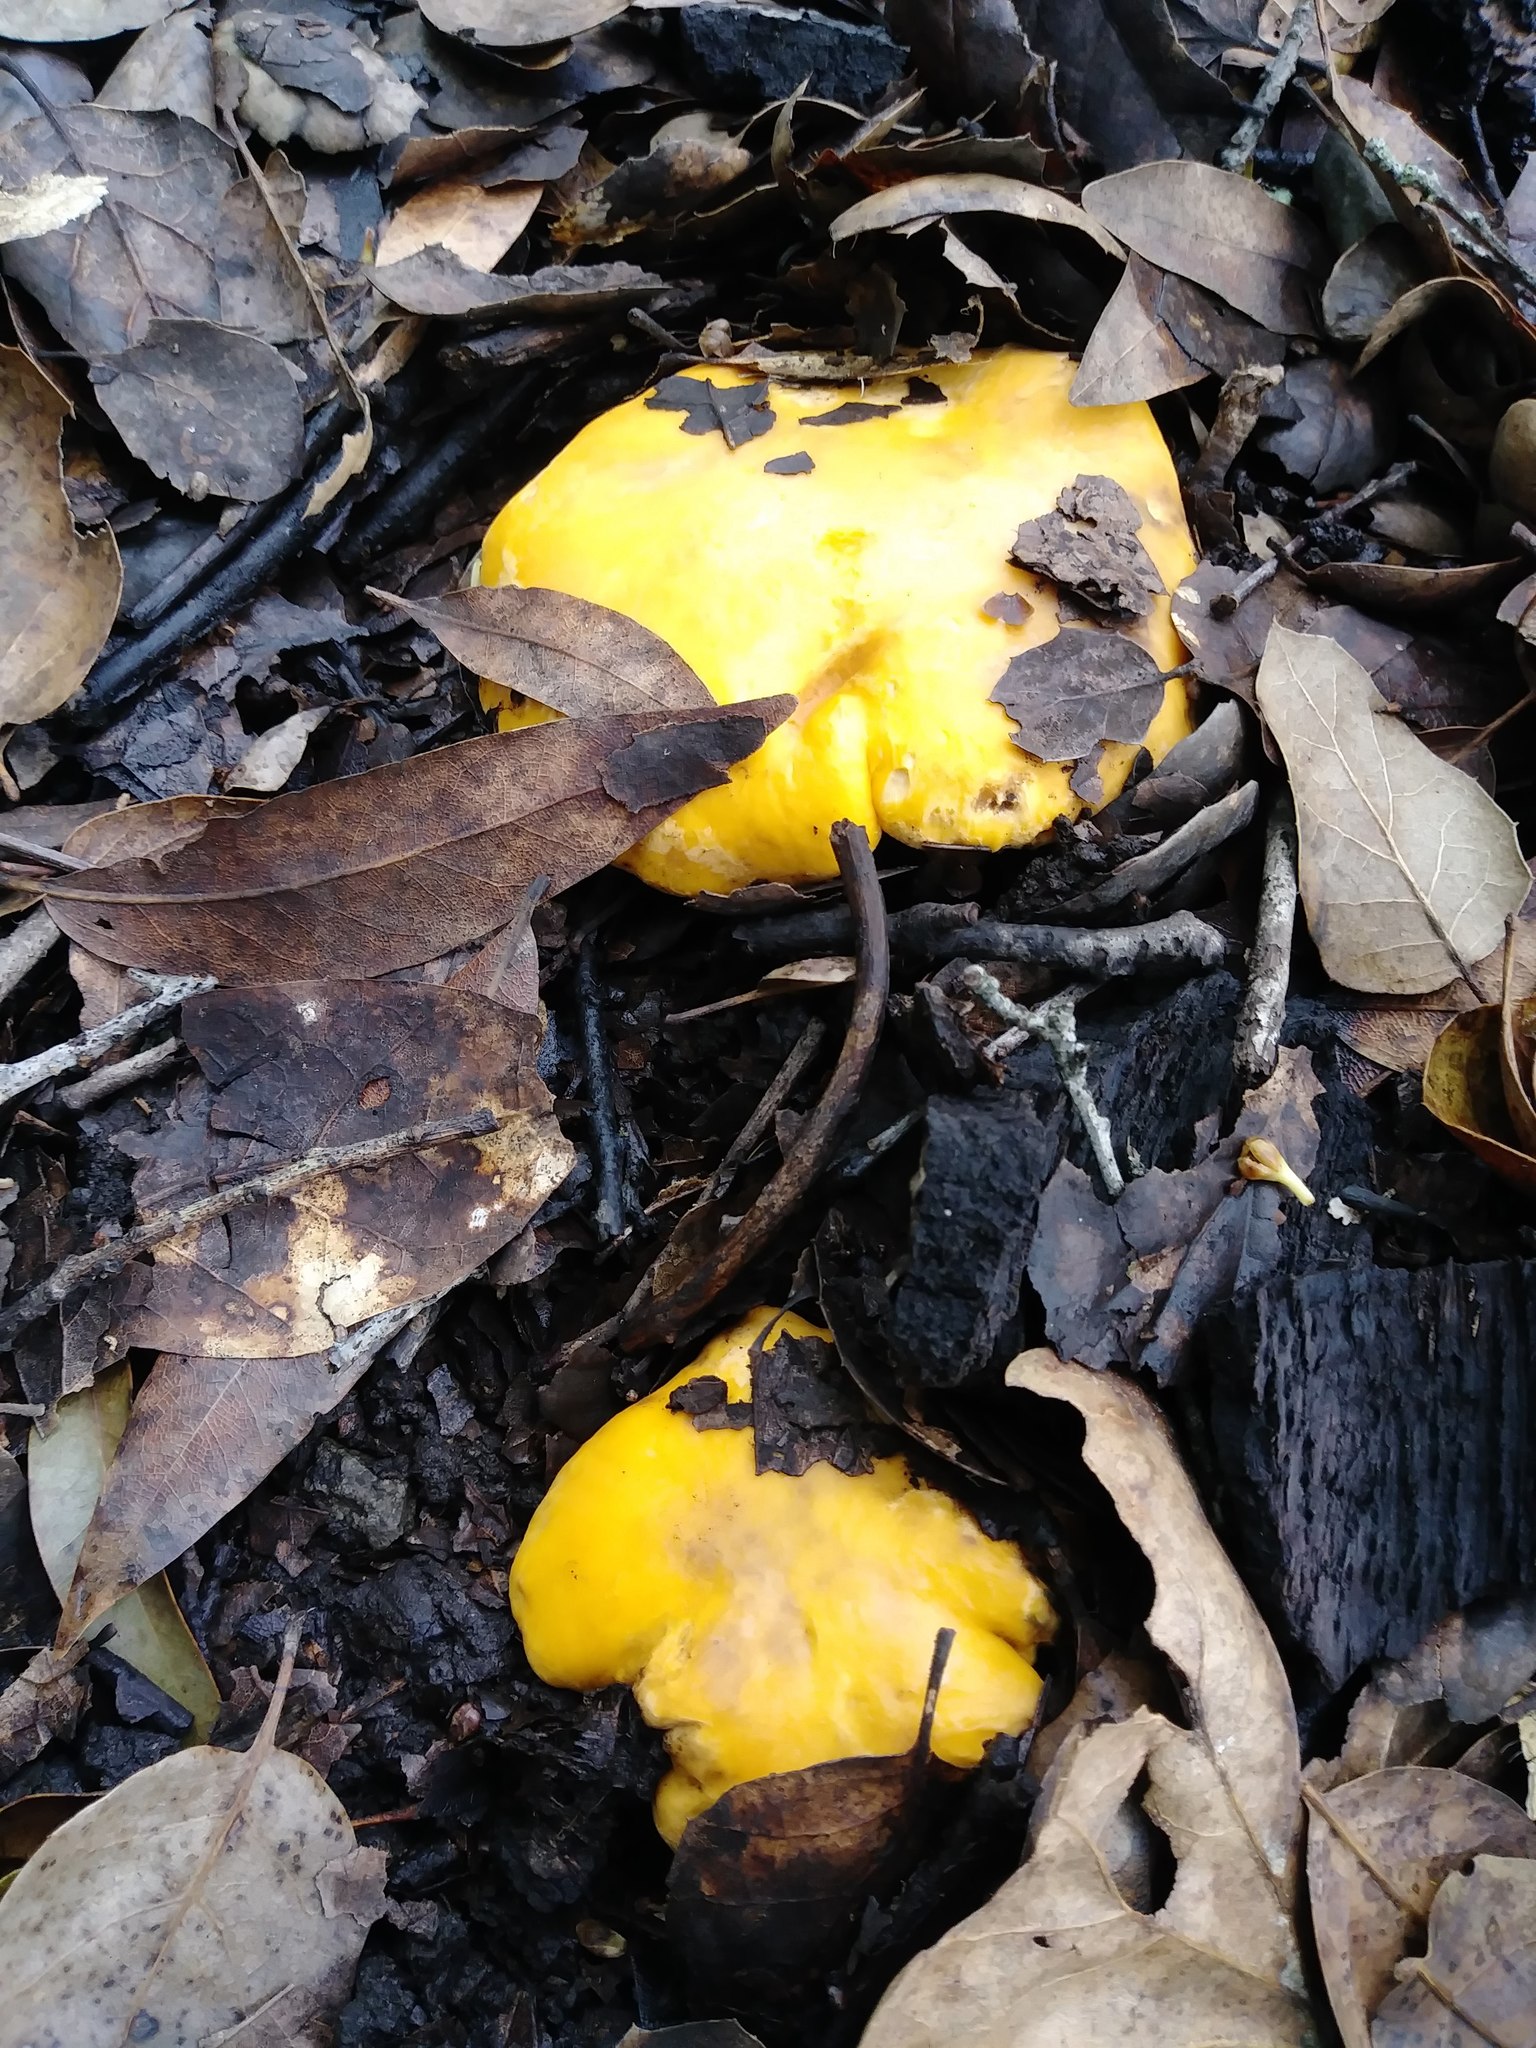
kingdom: Fungi
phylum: Basidiomycota
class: Agaricomycetes
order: Cantharellales
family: Hydnaceae
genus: Cantharellus
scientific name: Cantharellus californicus
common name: California golden chanterelle
